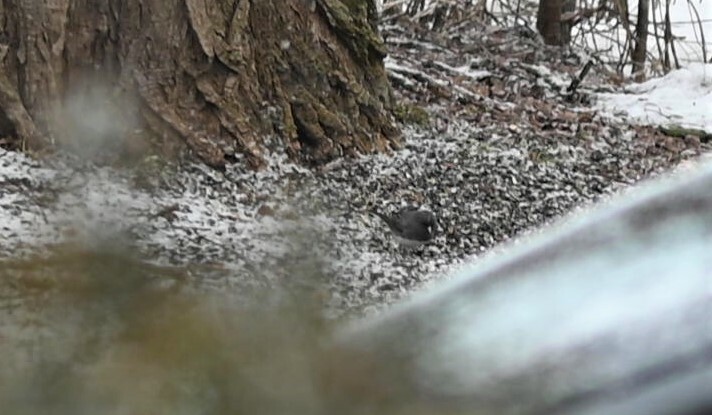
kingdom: Animalia
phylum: Chordata
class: Aves
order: Passeriformes
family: Passerellidae
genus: Junco
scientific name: Junco hyemalis
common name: Dark-eyed junco
